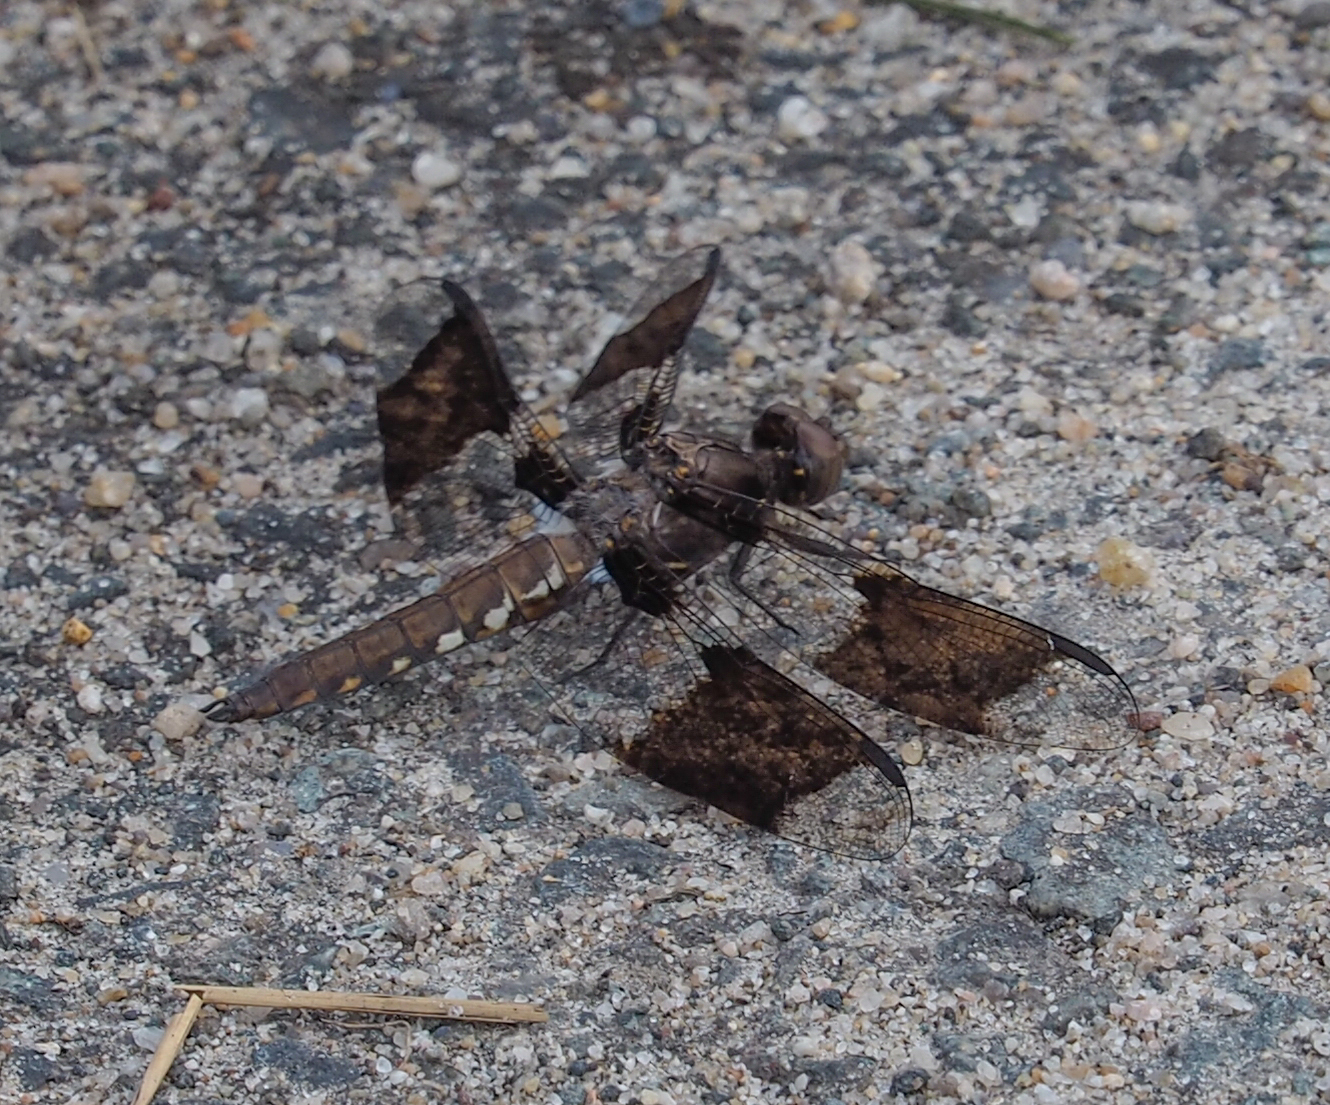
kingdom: Animalia
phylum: Arthropoda
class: Insecta
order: Odonata
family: Libellulidae
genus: Plathemis
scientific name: Plathemis lydia
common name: Common whitetail
